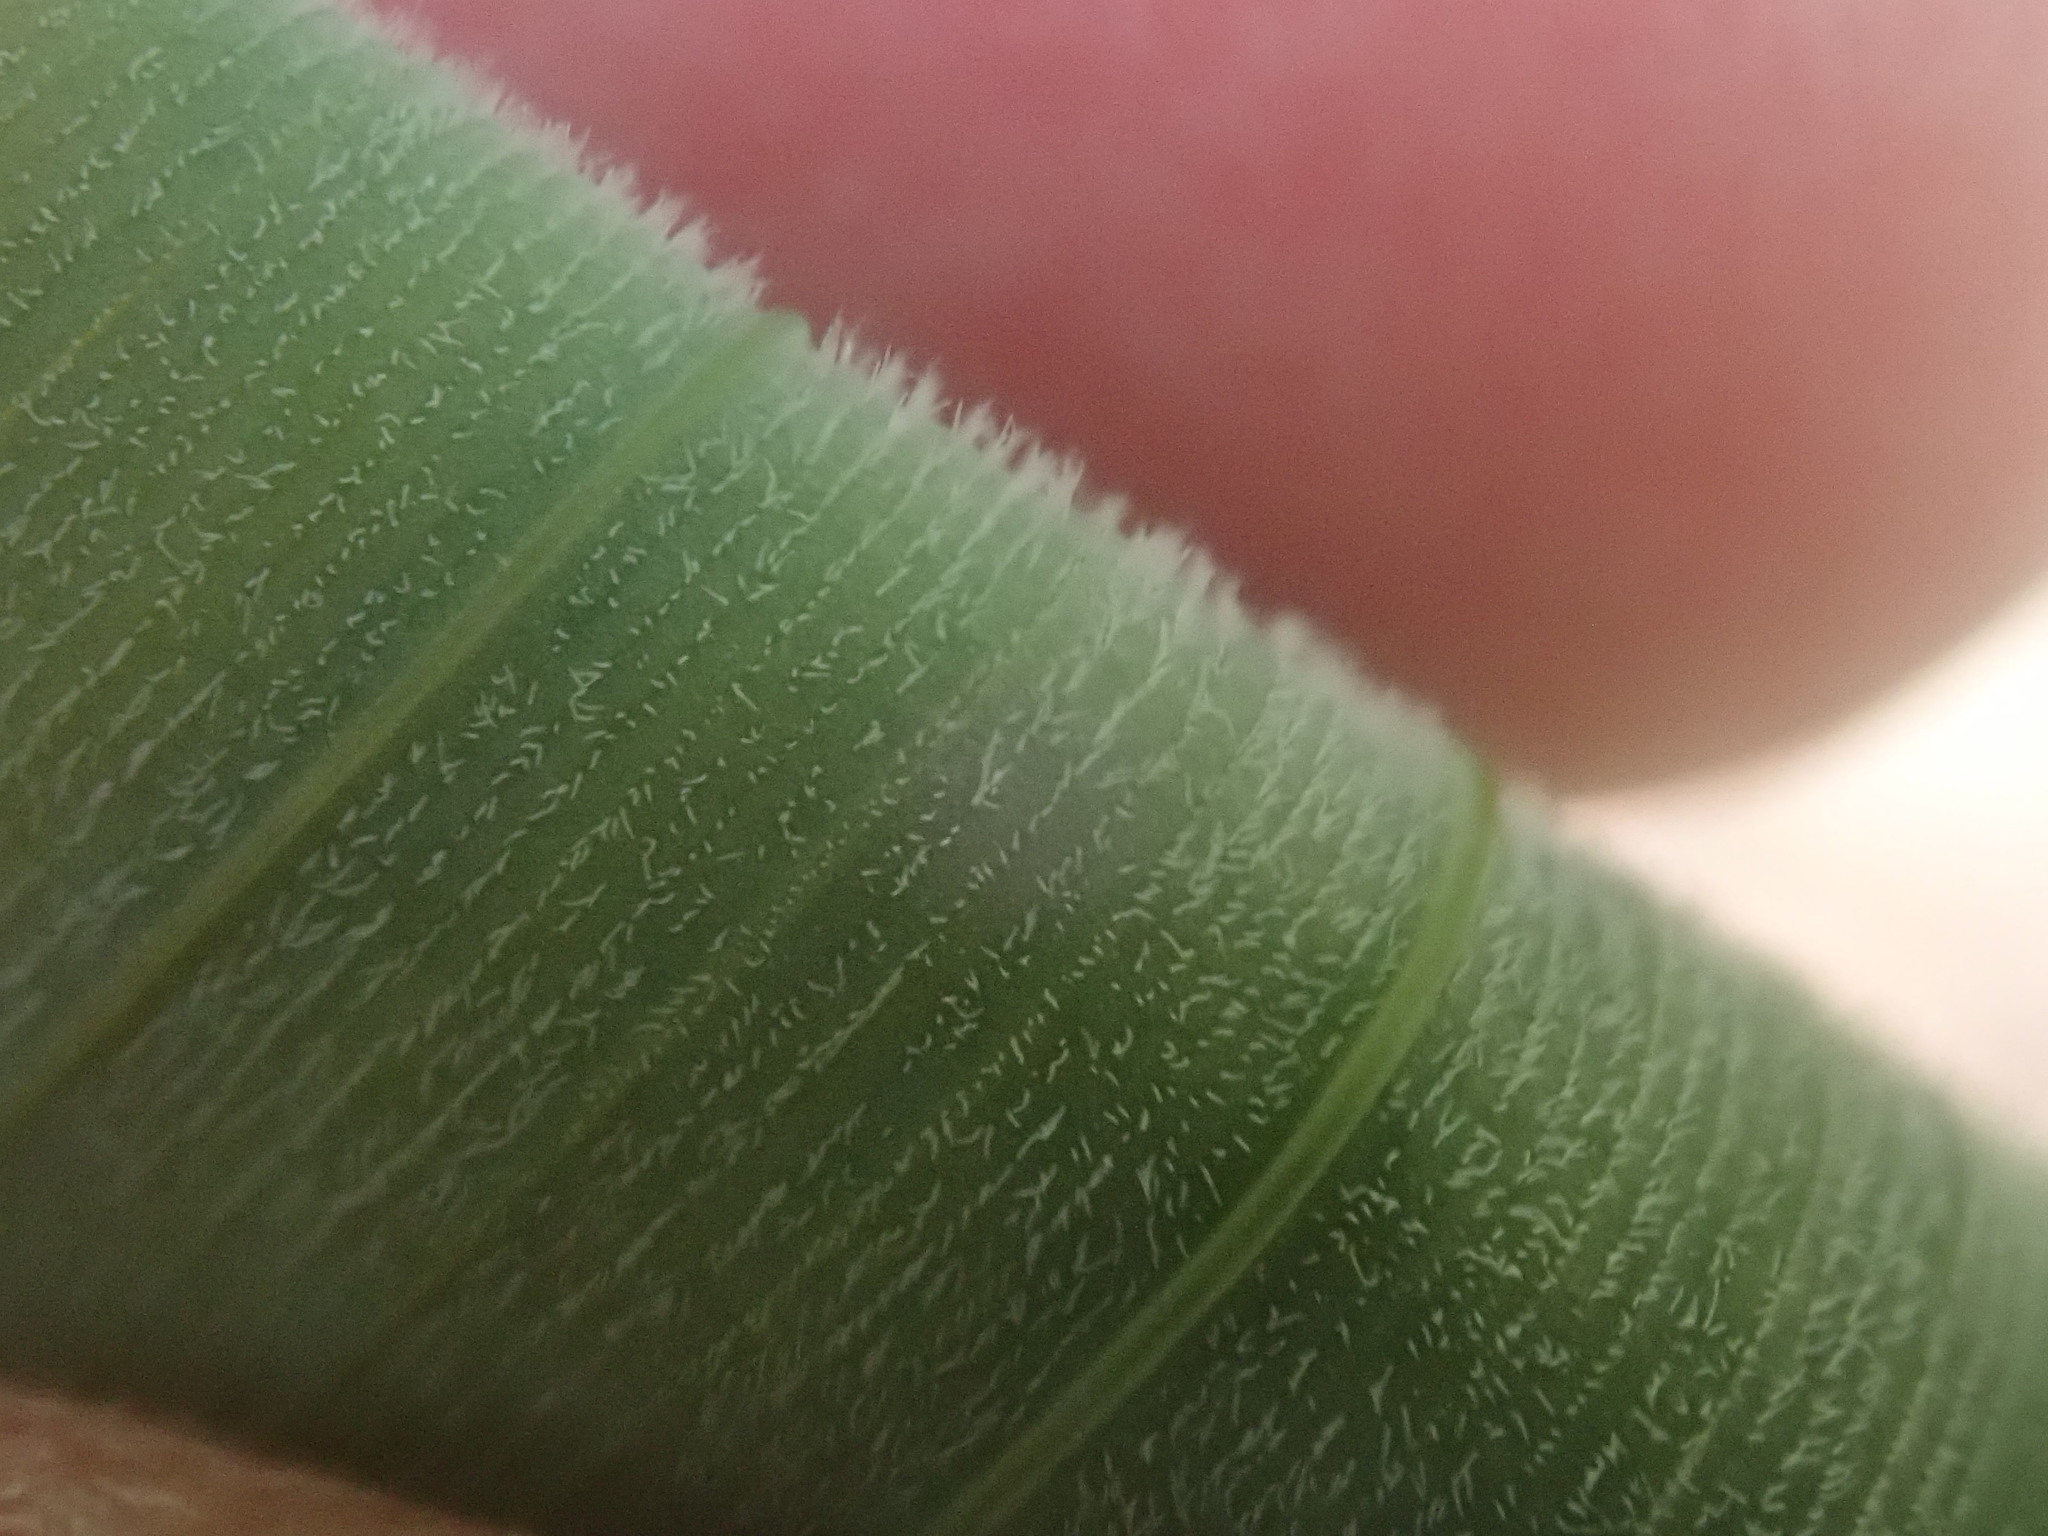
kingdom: Plantae
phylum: Tracheophyta
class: Liliopsida
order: Asparagales
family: Asparagaceae
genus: Polygonatum
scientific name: Polygonatum pubescens
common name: Downy solomon's seal
